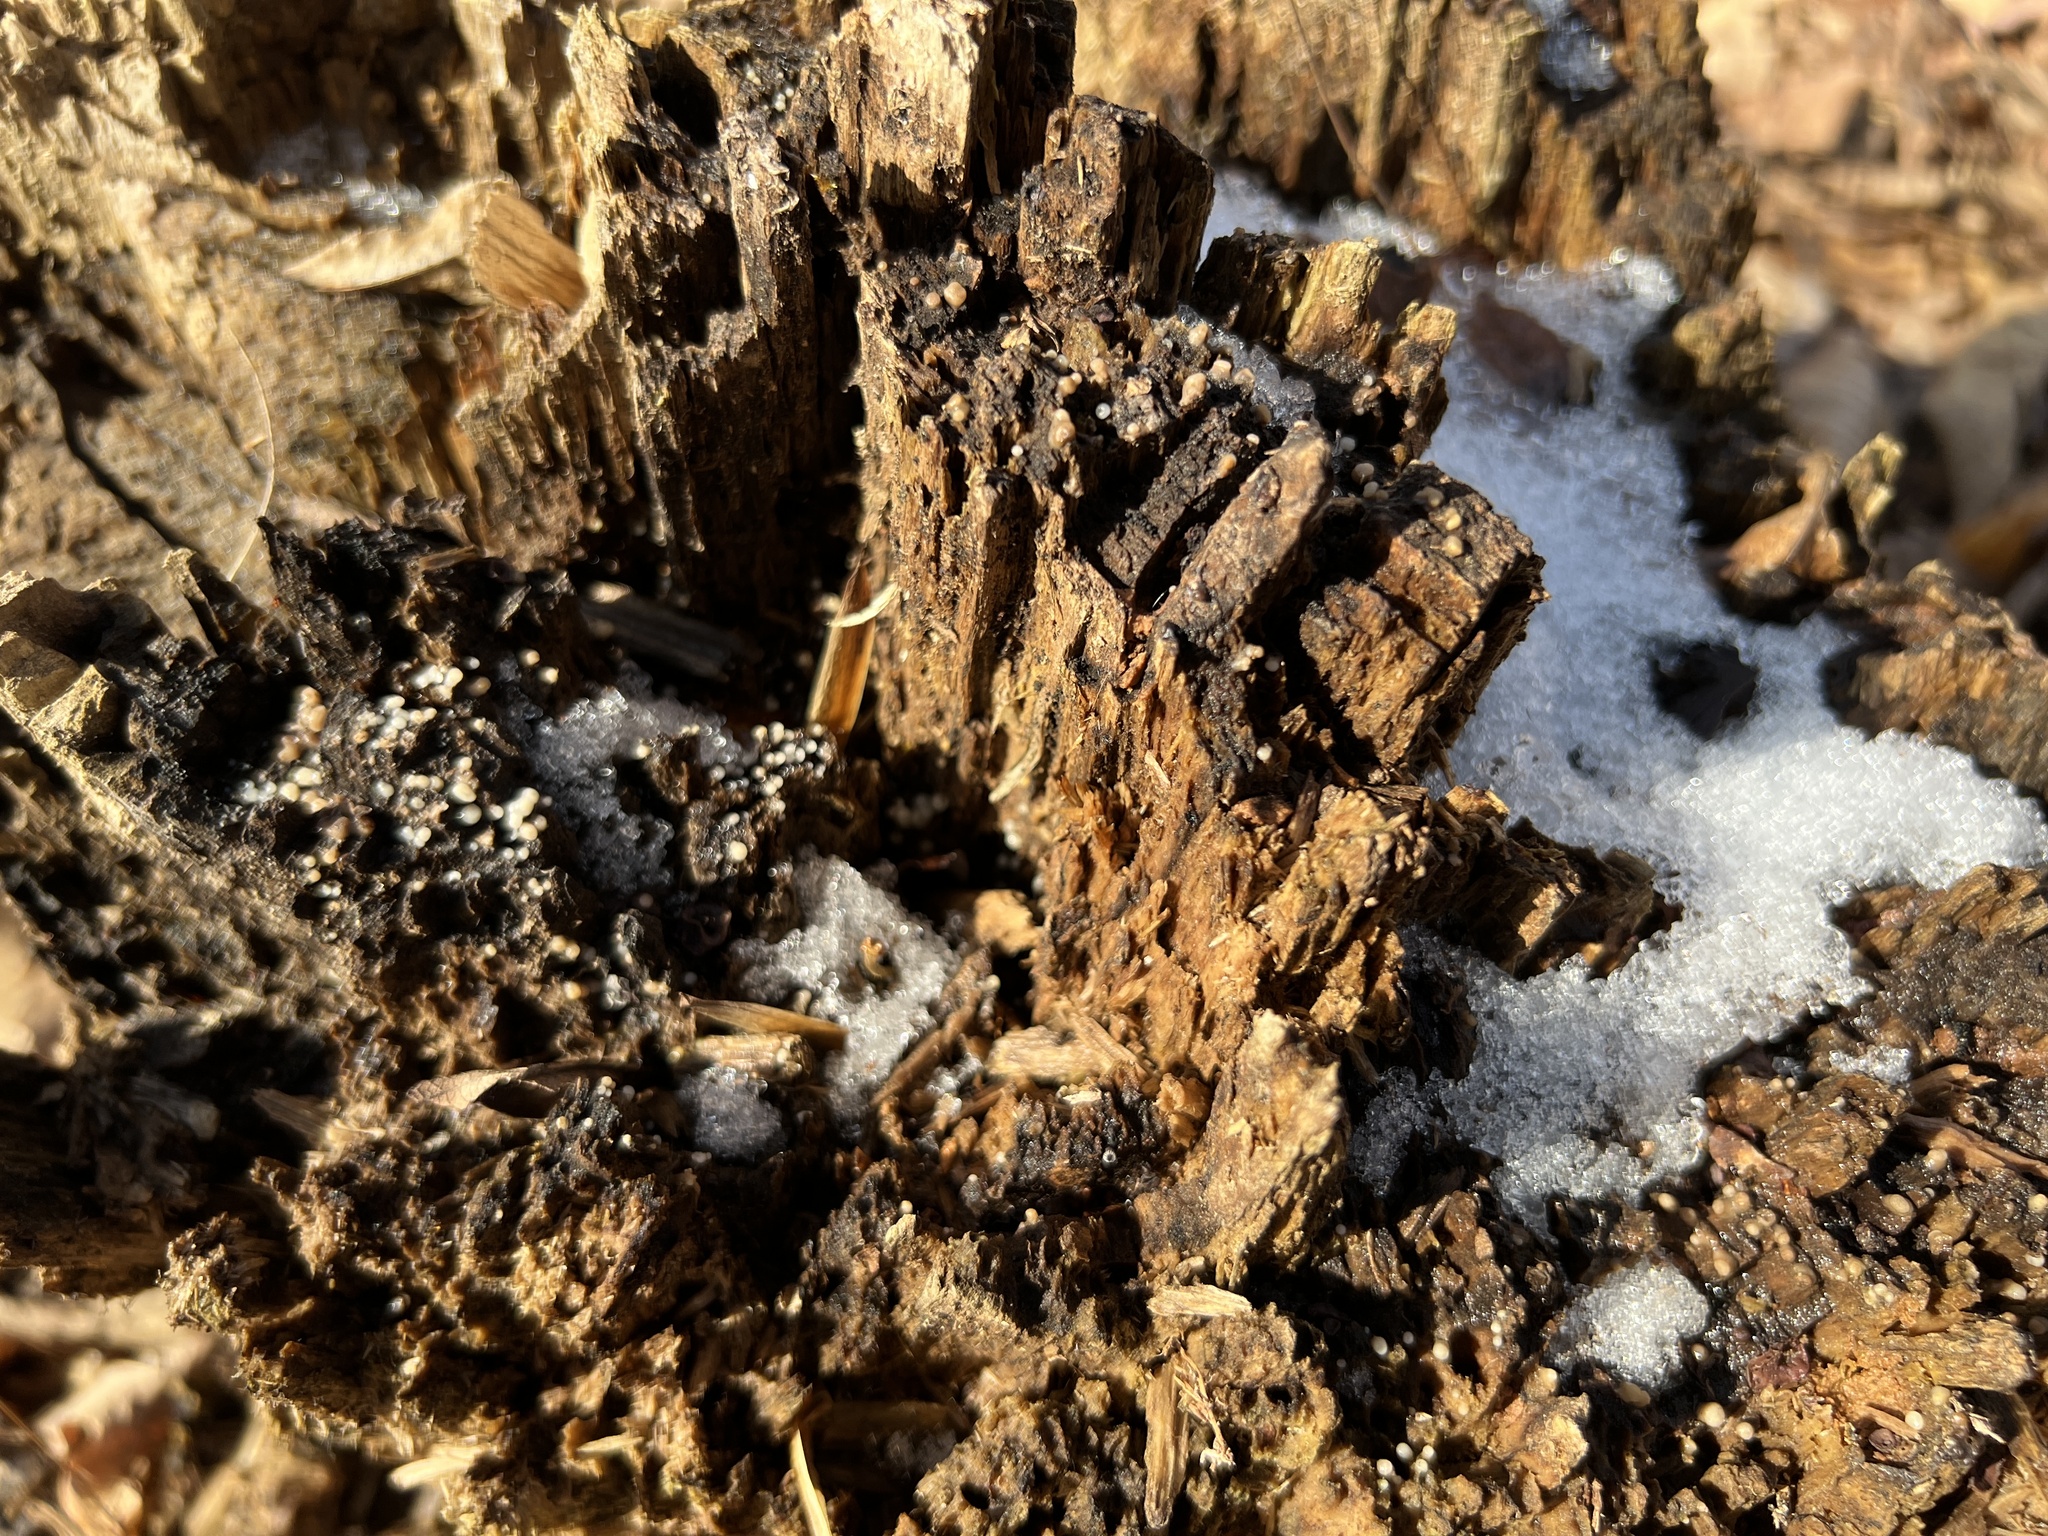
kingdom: Fungi
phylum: Basidiomycota
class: Atractiellomycetes
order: Atractiellales
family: Phleogenaceae
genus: Helicogloea
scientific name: Helicogloea compressa
